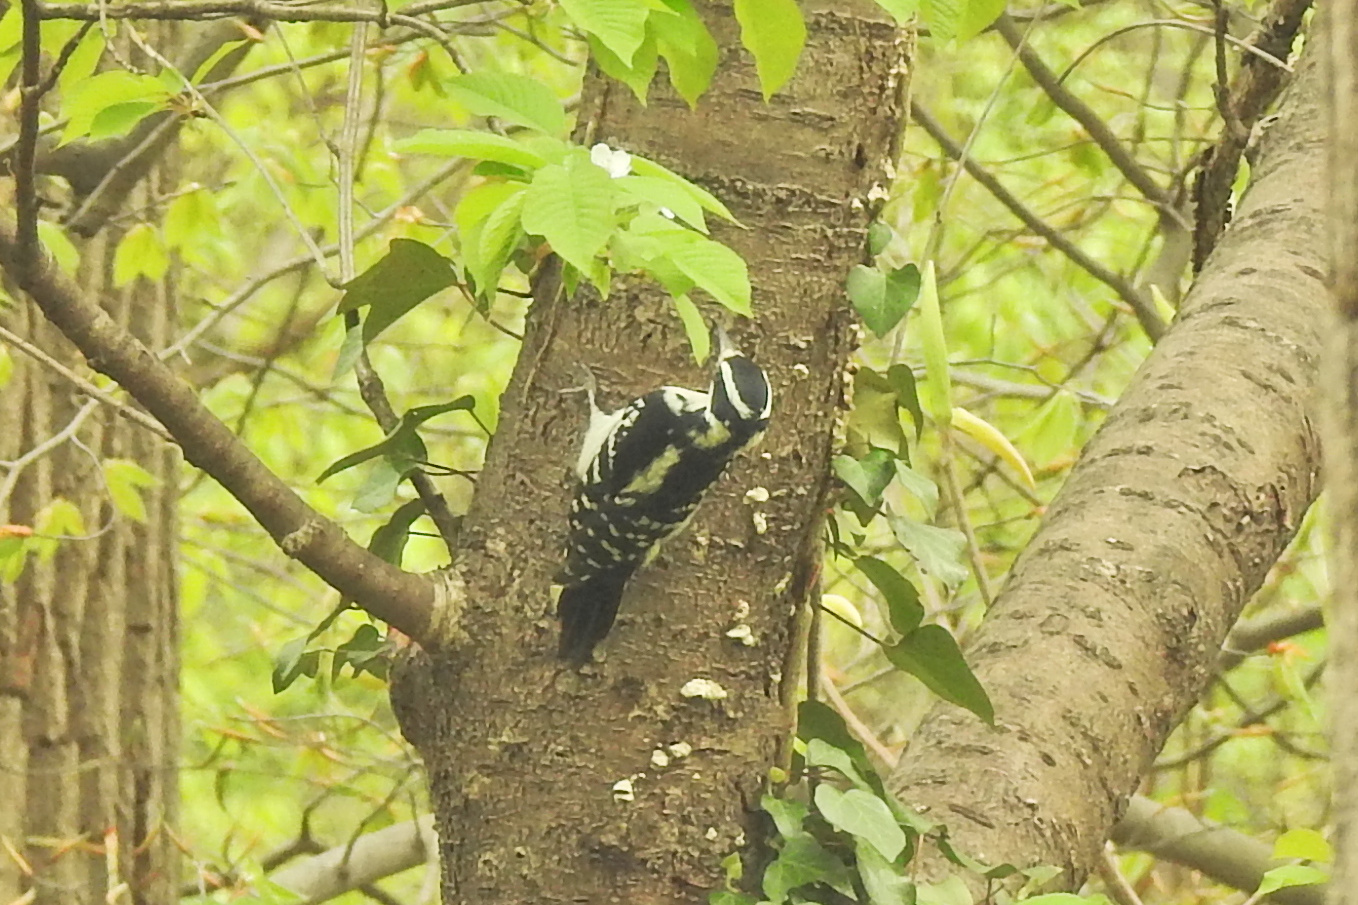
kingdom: Animalia
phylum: Chordata
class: Aves
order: Piciformes
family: Picidae
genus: Leuconotopicus
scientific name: Leuconotopicus villosus
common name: Hairy woodpecker
